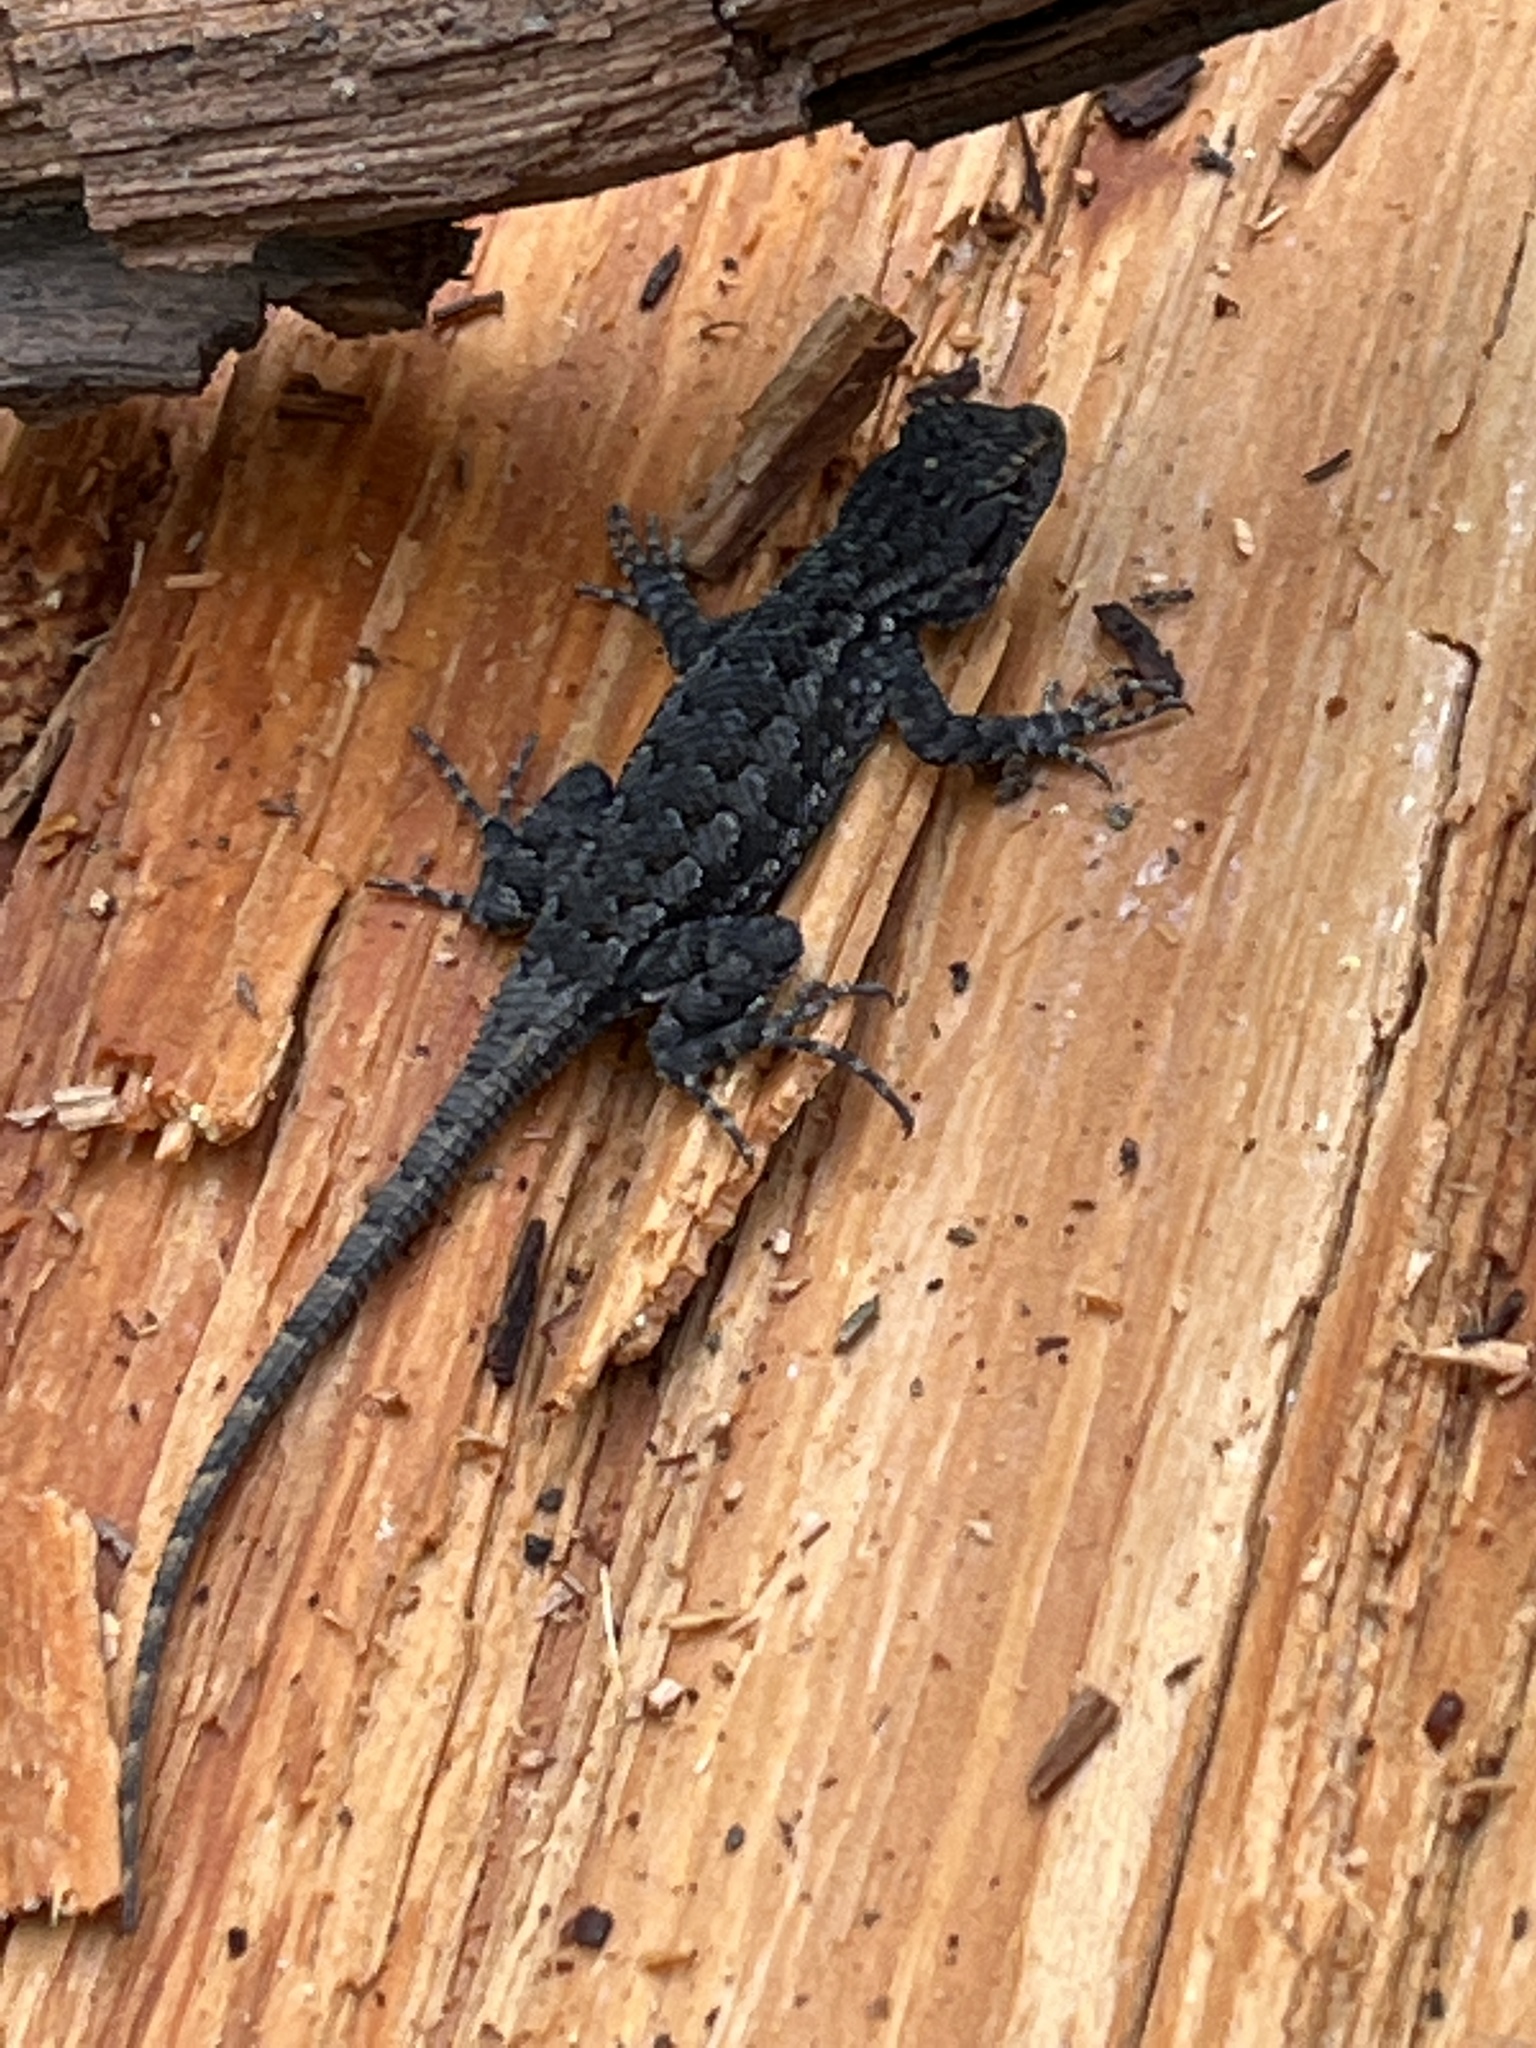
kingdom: Animalia
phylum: Chordata
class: Squamata
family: Phrynosomatidae
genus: Sceloporus
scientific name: Sceloporus occidentalis
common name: Western fence lizard
